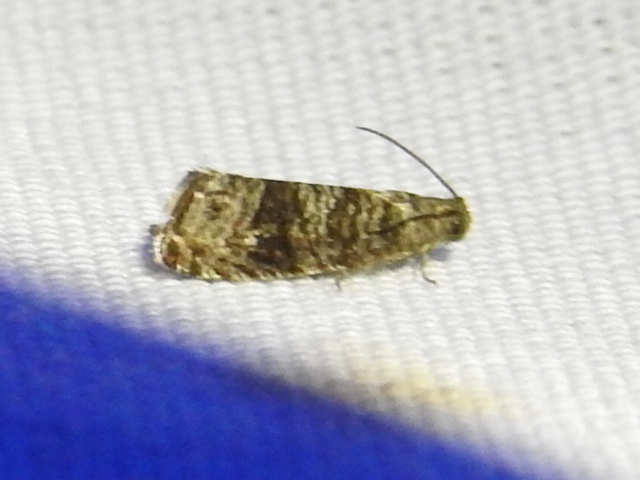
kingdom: Animalia
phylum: Arthropoda
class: Insecta
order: Lepidoptera
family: Noctuidae
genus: Aspila
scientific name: Aspila
